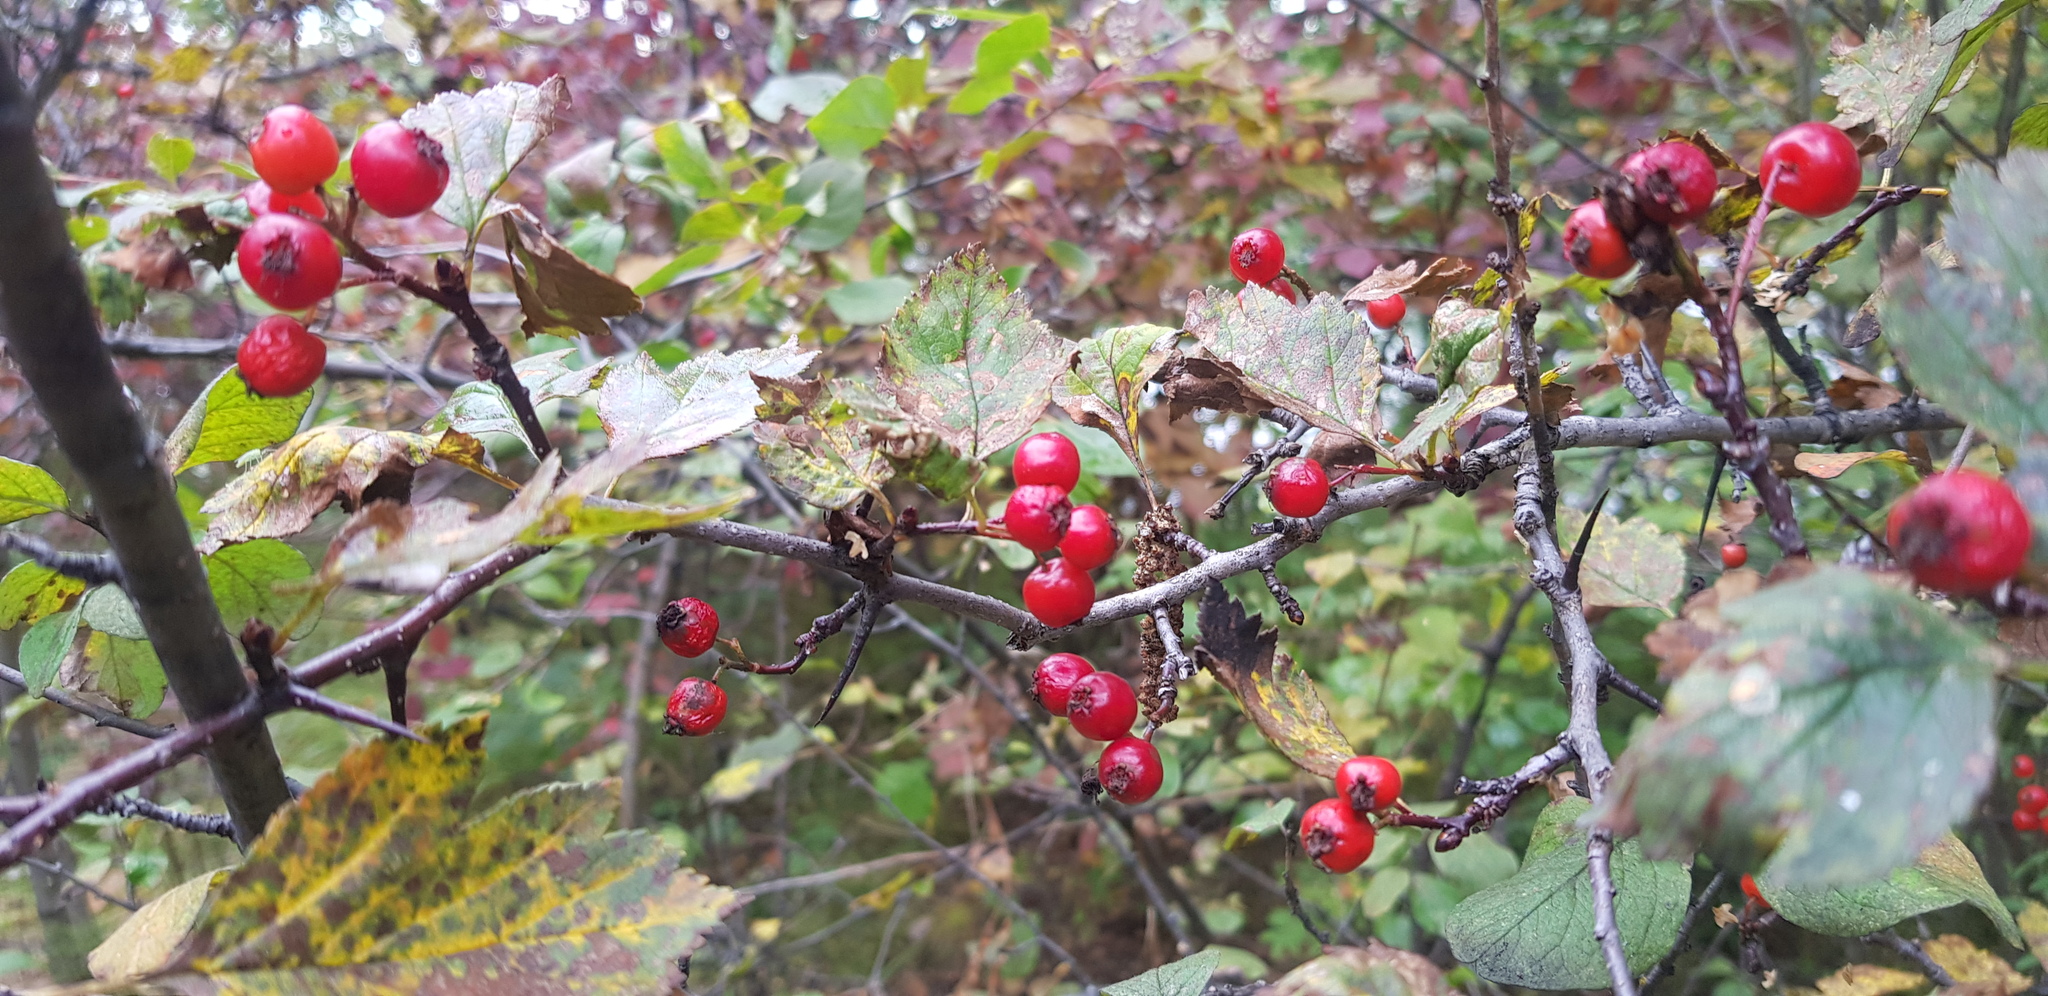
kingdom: Plantae
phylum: Tracheophyta
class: Magnoliopsida
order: Rosales
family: Rosaceae
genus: Crataegus
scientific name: Crataegus sanguinea
